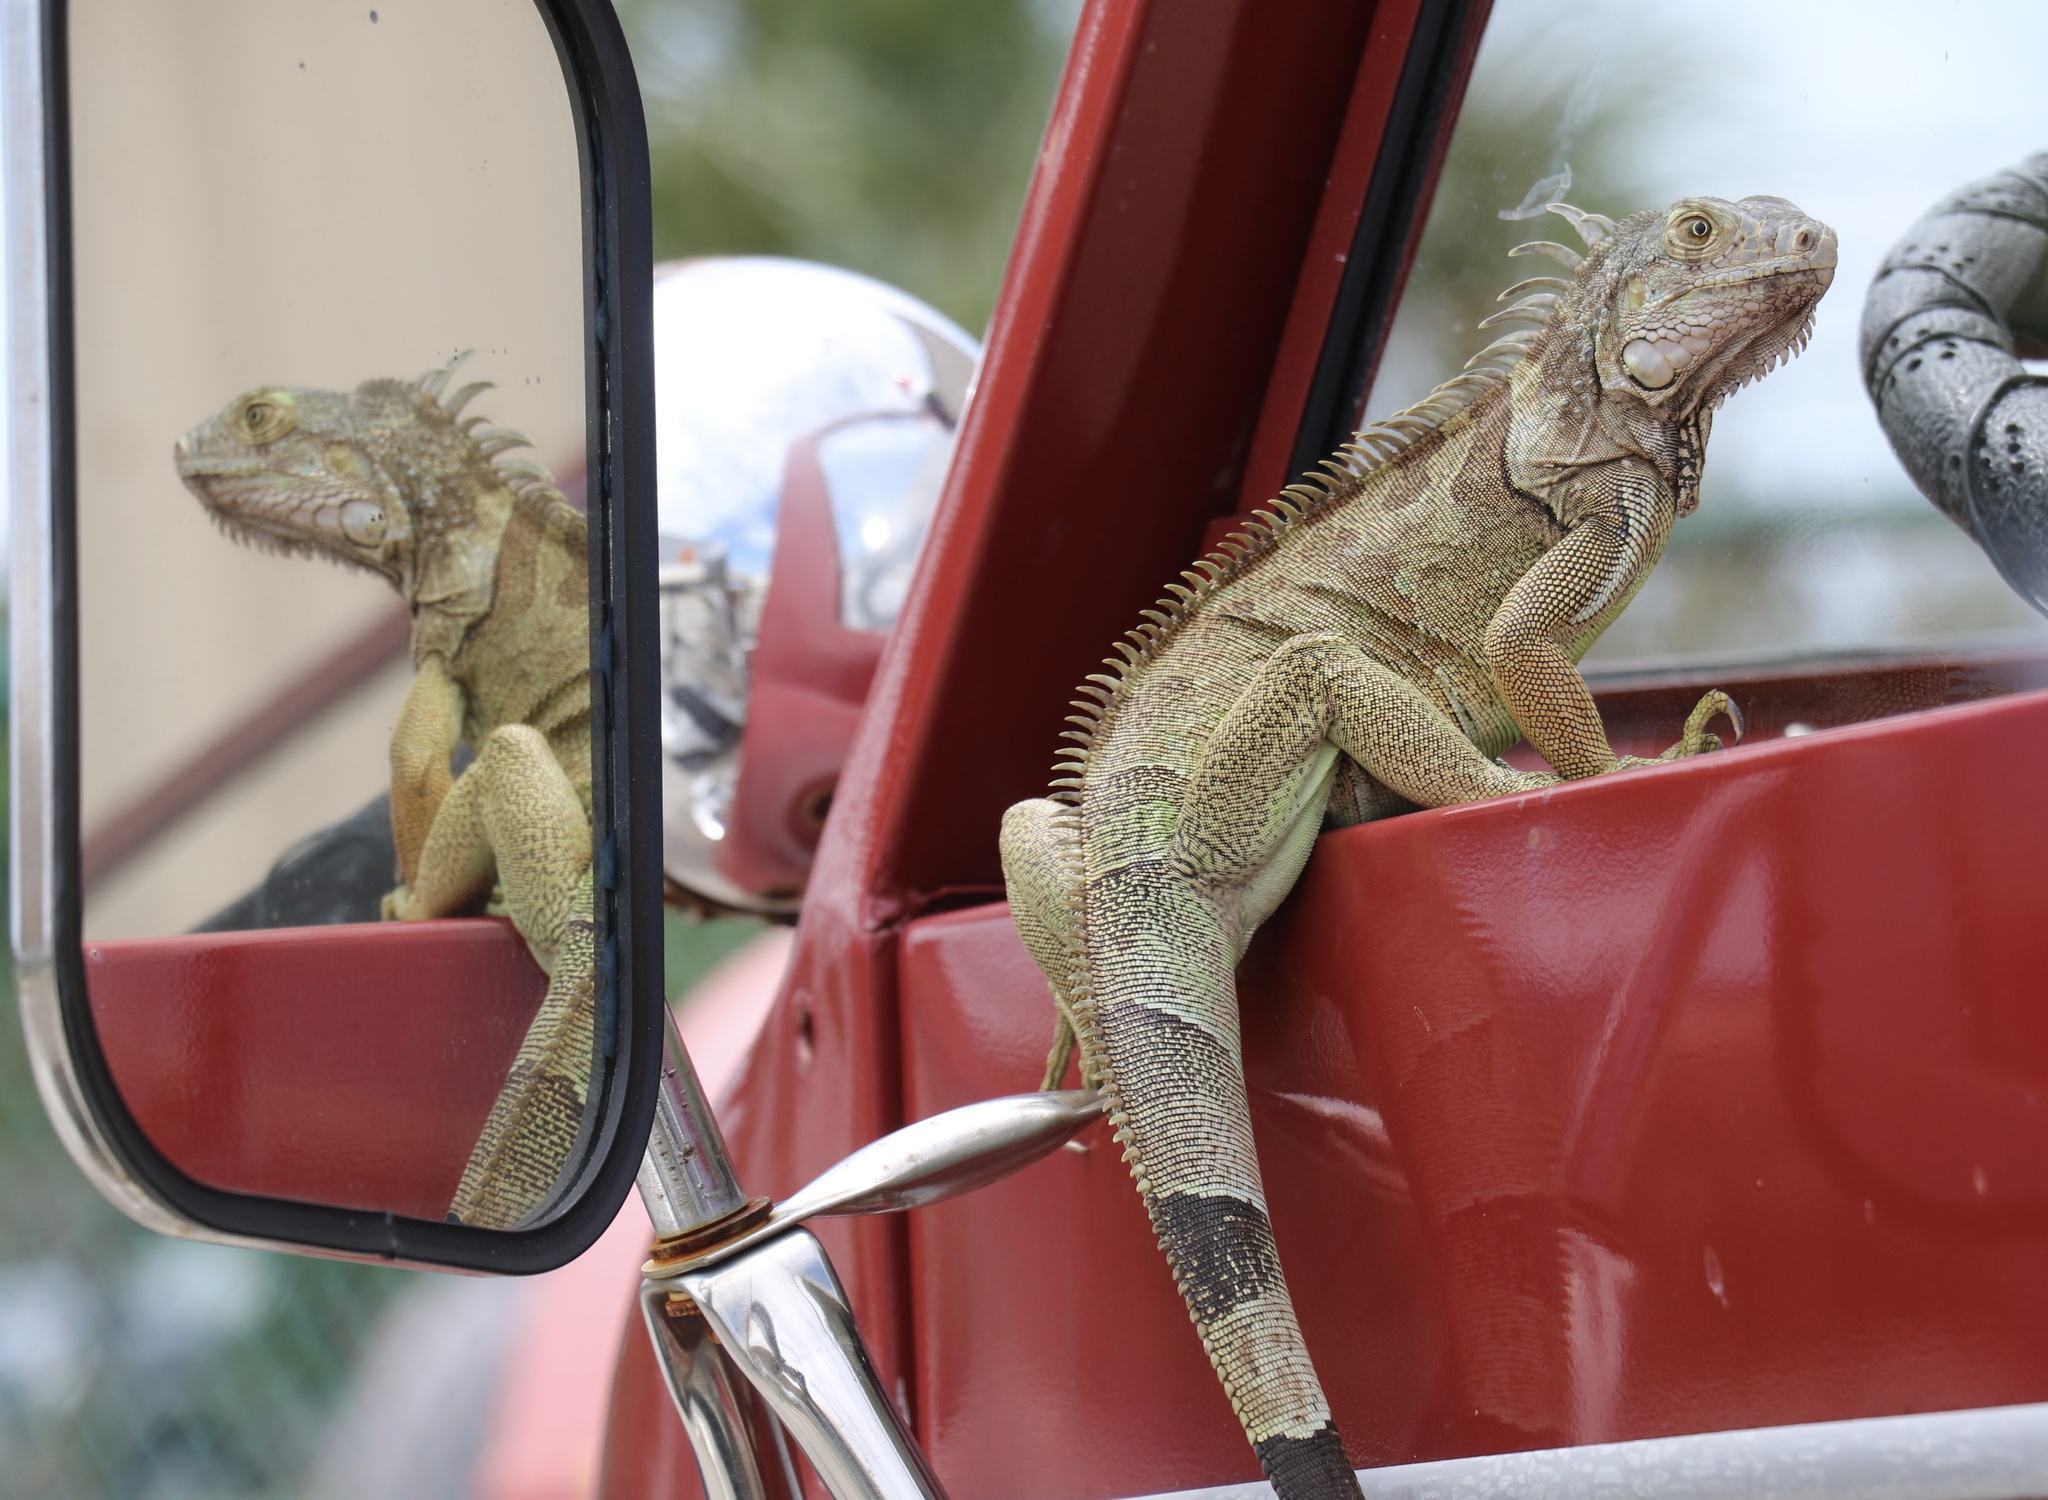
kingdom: Animalia
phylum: Chordata
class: Squamata
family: Iguanidae
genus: Iguana
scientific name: Iguana iguana
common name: Green iguana
